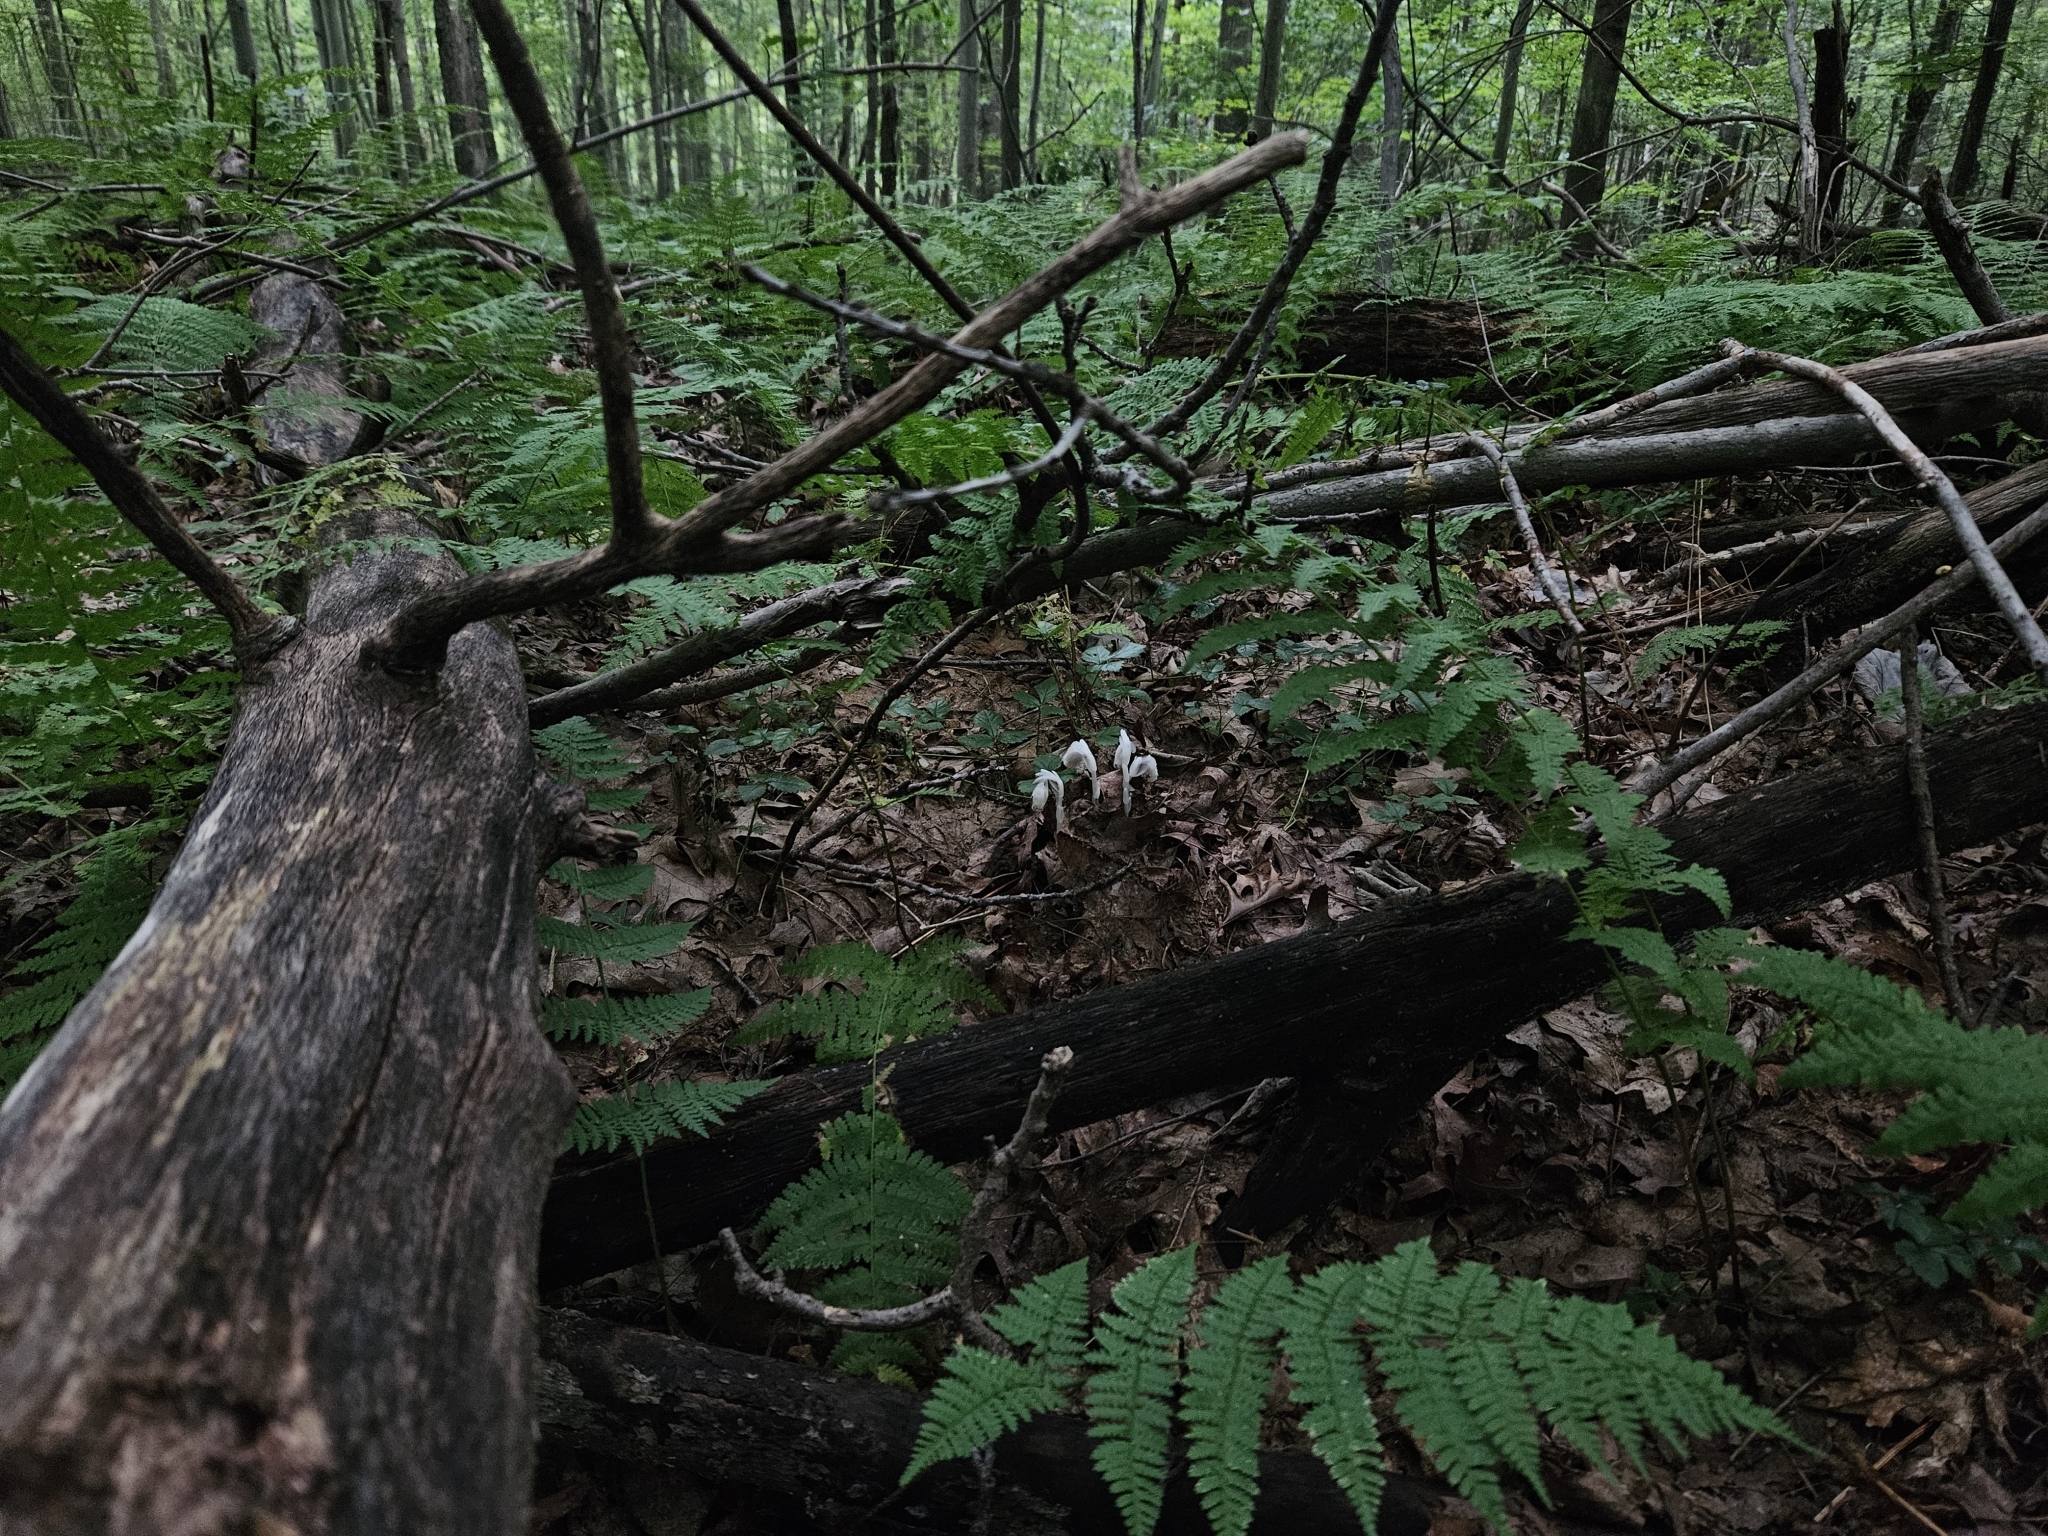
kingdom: Plantae
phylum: Tracheophyta
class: Magnoliopsida
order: Ericales
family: Ericaceae
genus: Monotropa
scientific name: Monotropa uniflora
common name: Convulsion root
